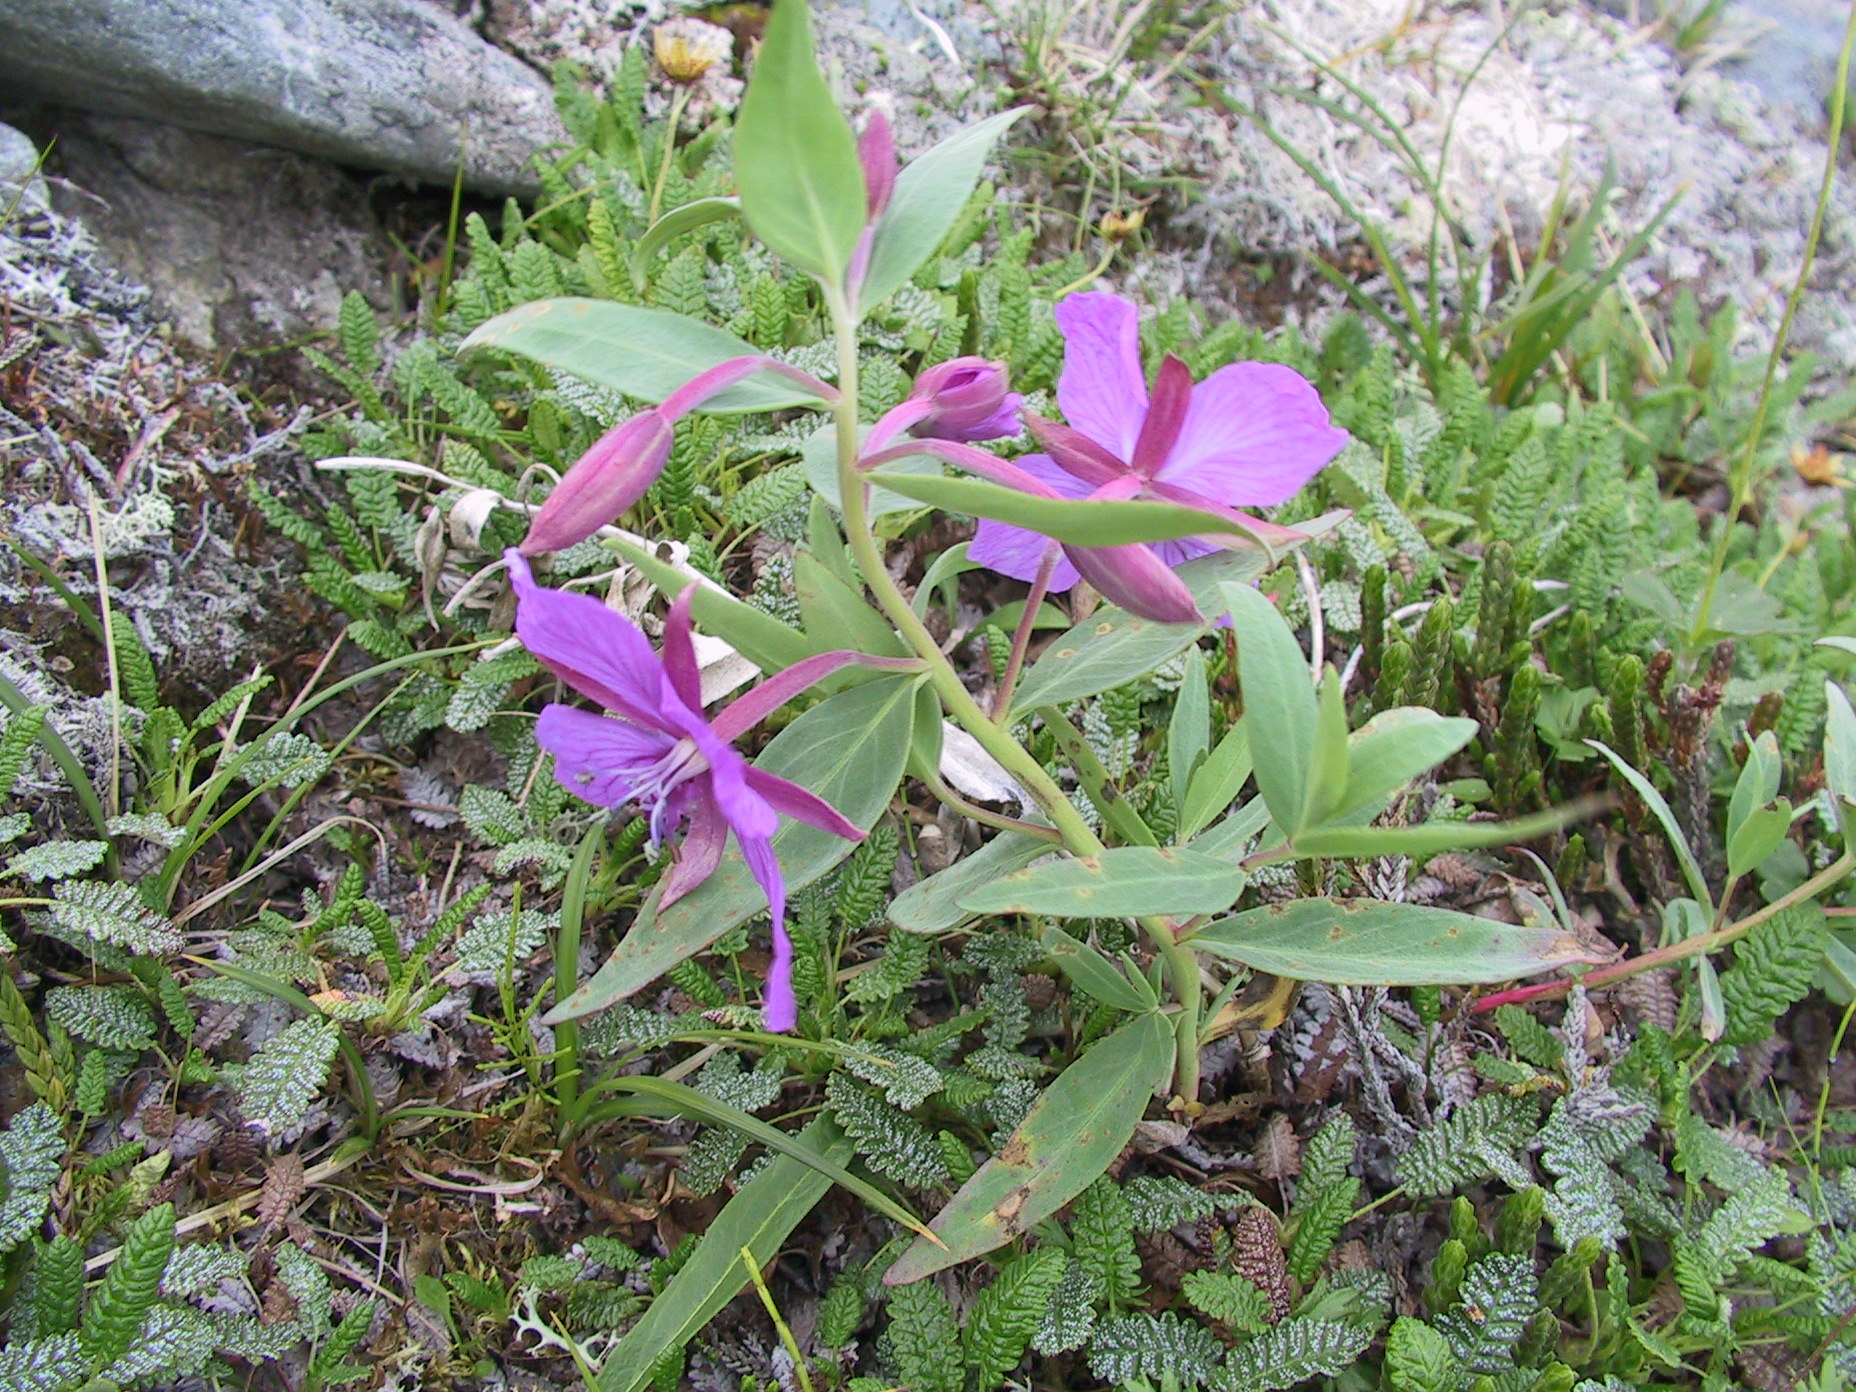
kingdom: Plantae
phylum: Tracheophyta
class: Magnoliopsida
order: Myrtales
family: Onagraceae
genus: Chamaenerion
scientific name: Chamaenerion latifolium
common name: Dwarf fireweed
